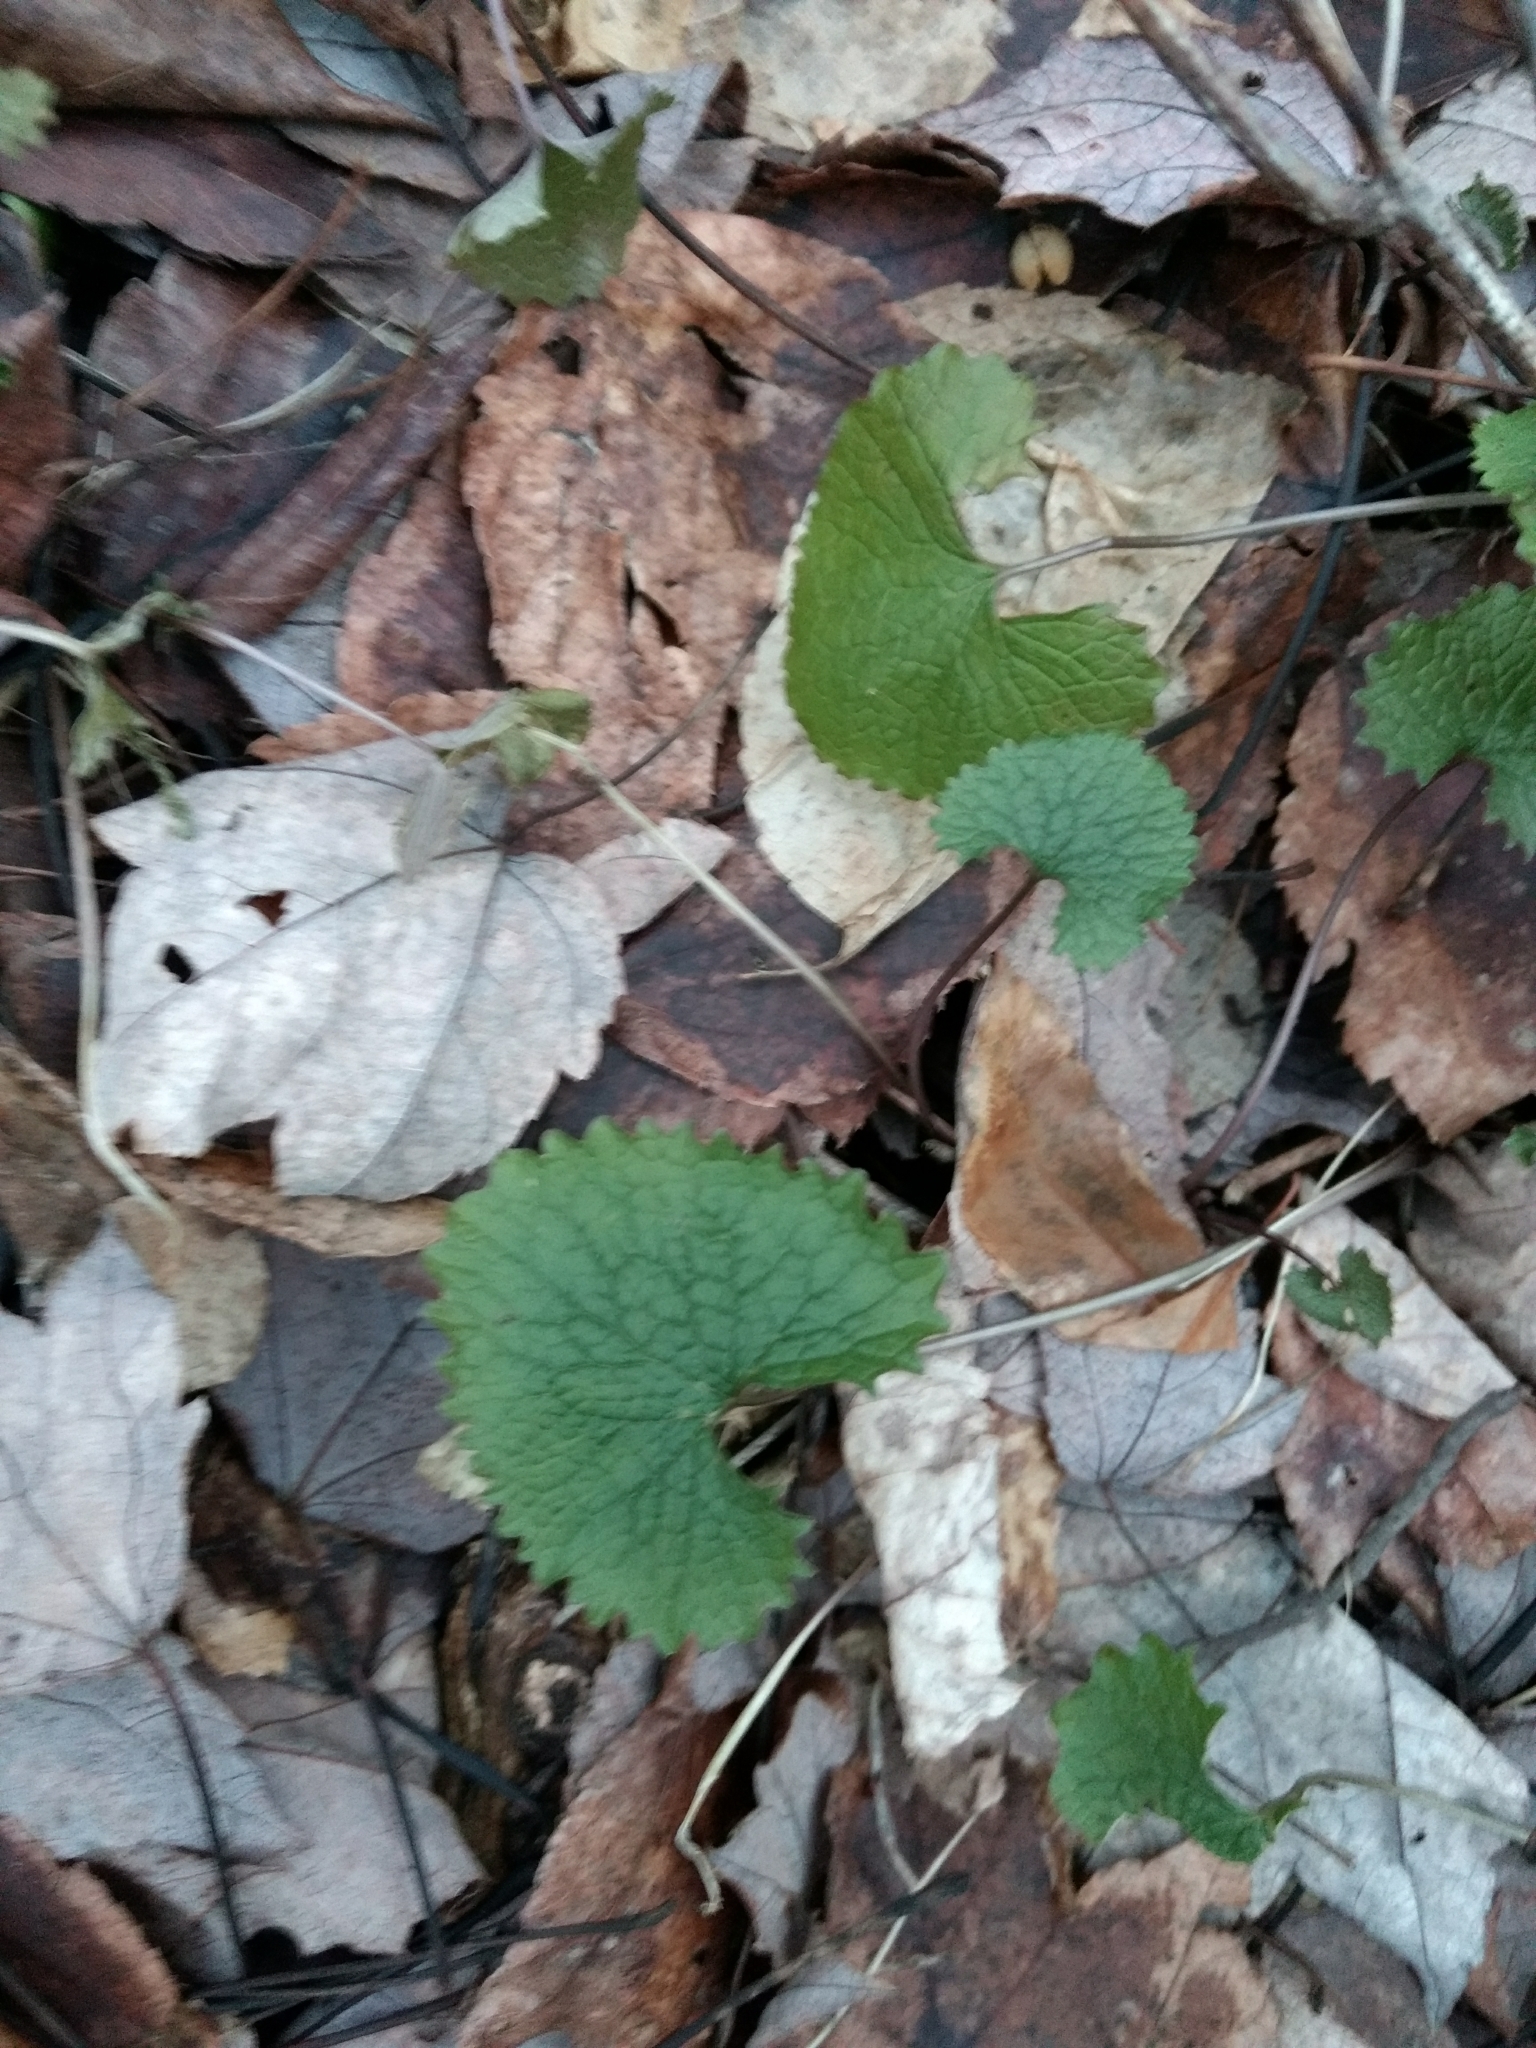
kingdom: Plantae
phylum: Tracheophyta
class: Magnoliopsida
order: Brassicales
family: Brassicaceae
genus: Alliaria
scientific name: Alliaria petiolata
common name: Garlic mustard
